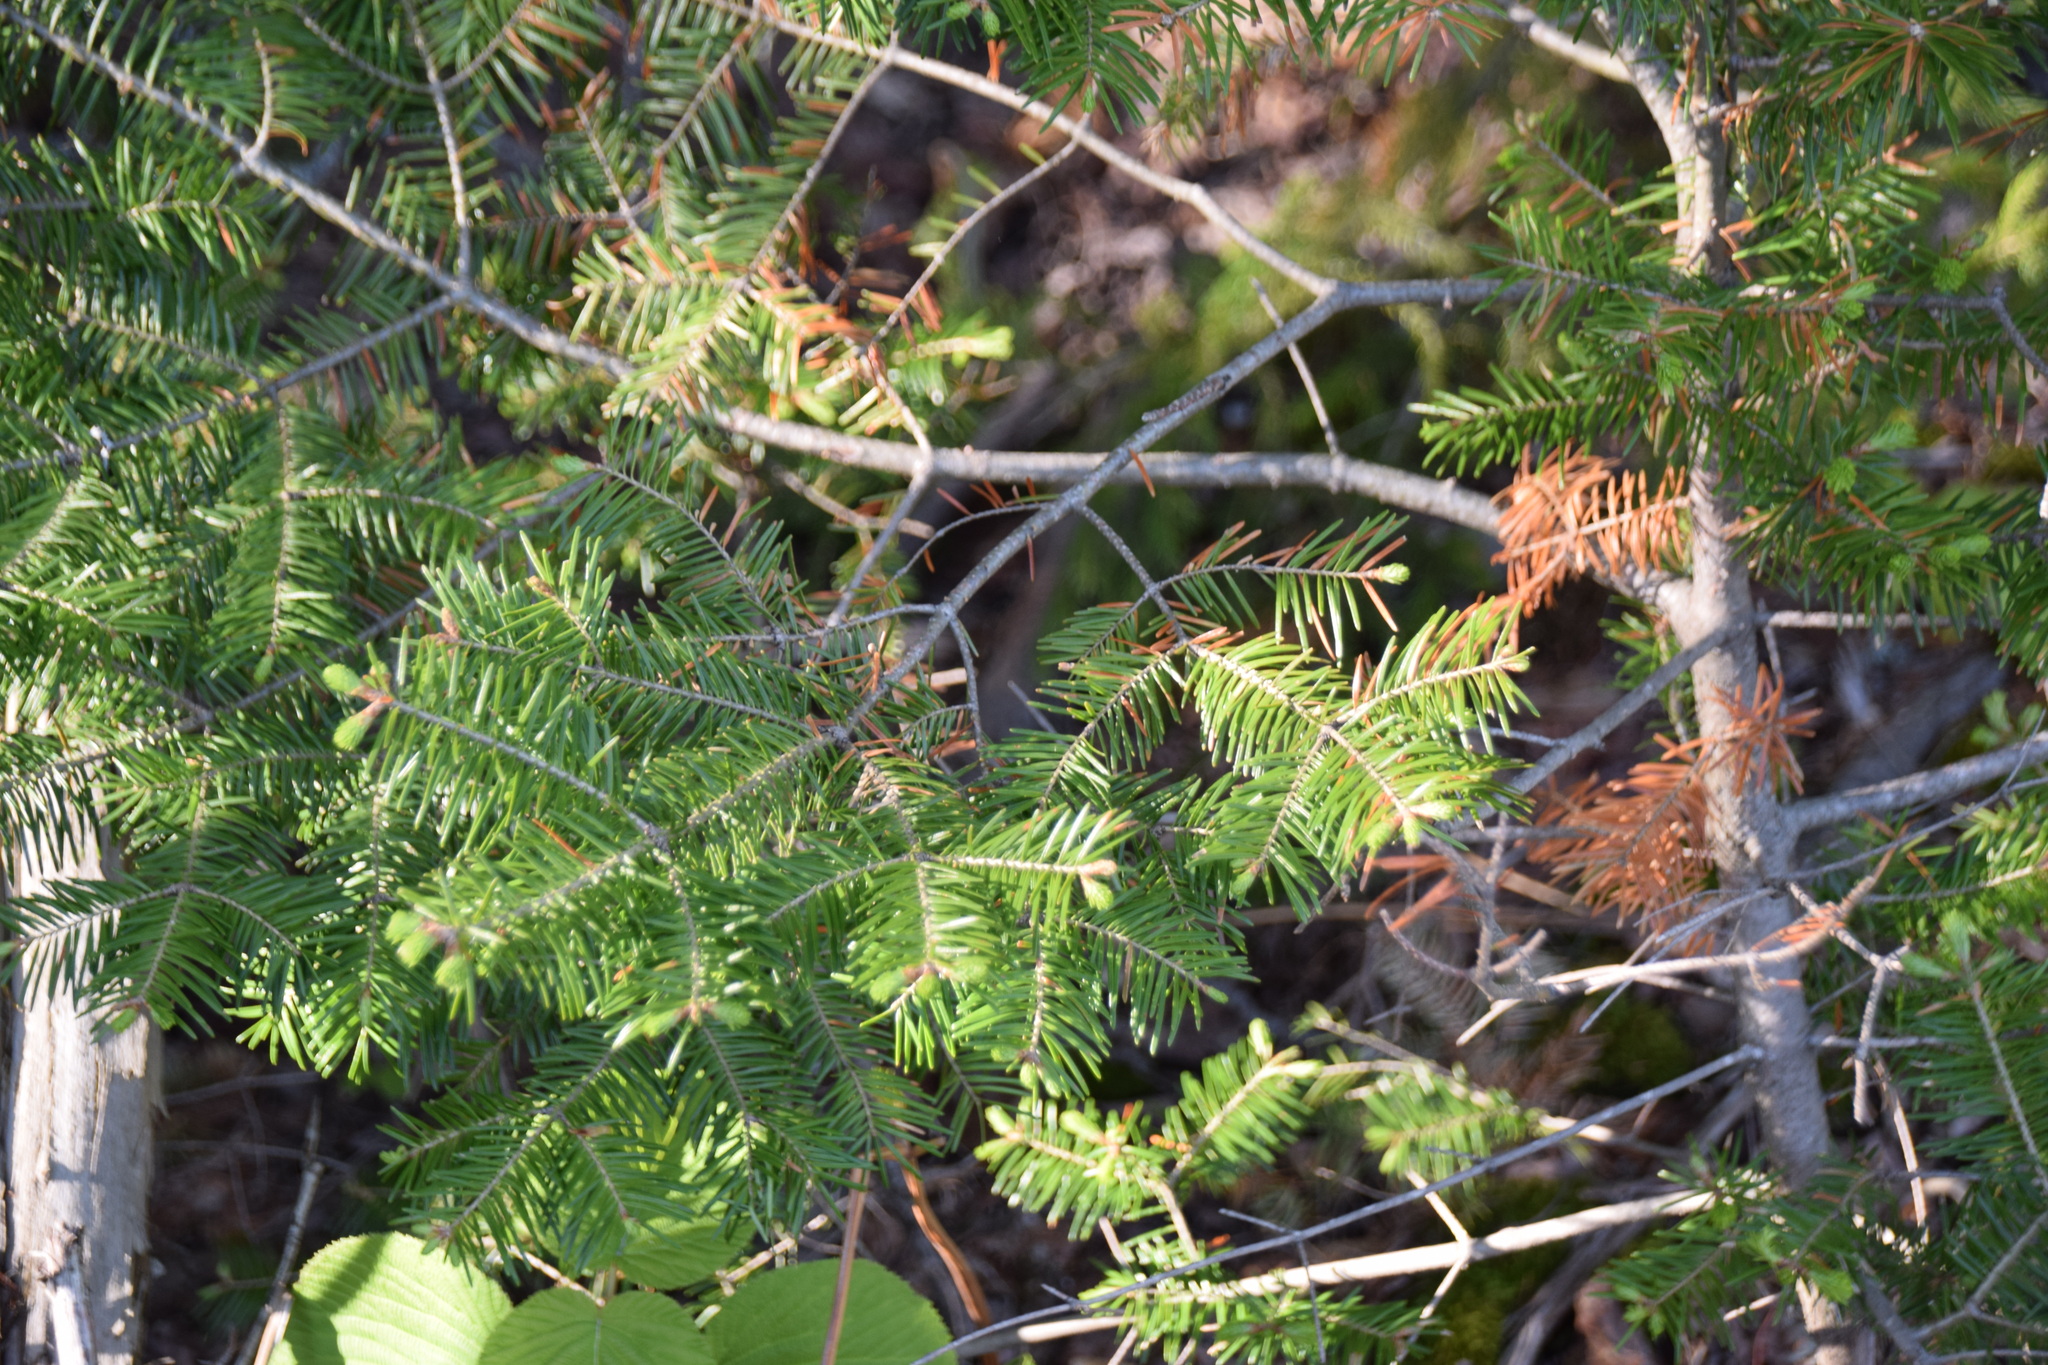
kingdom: Plantae
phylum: Tracheophyta
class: Pinopsida
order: Pinales
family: Pinaceae
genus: Abies
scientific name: Abies balsamea
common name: Balsam fir
